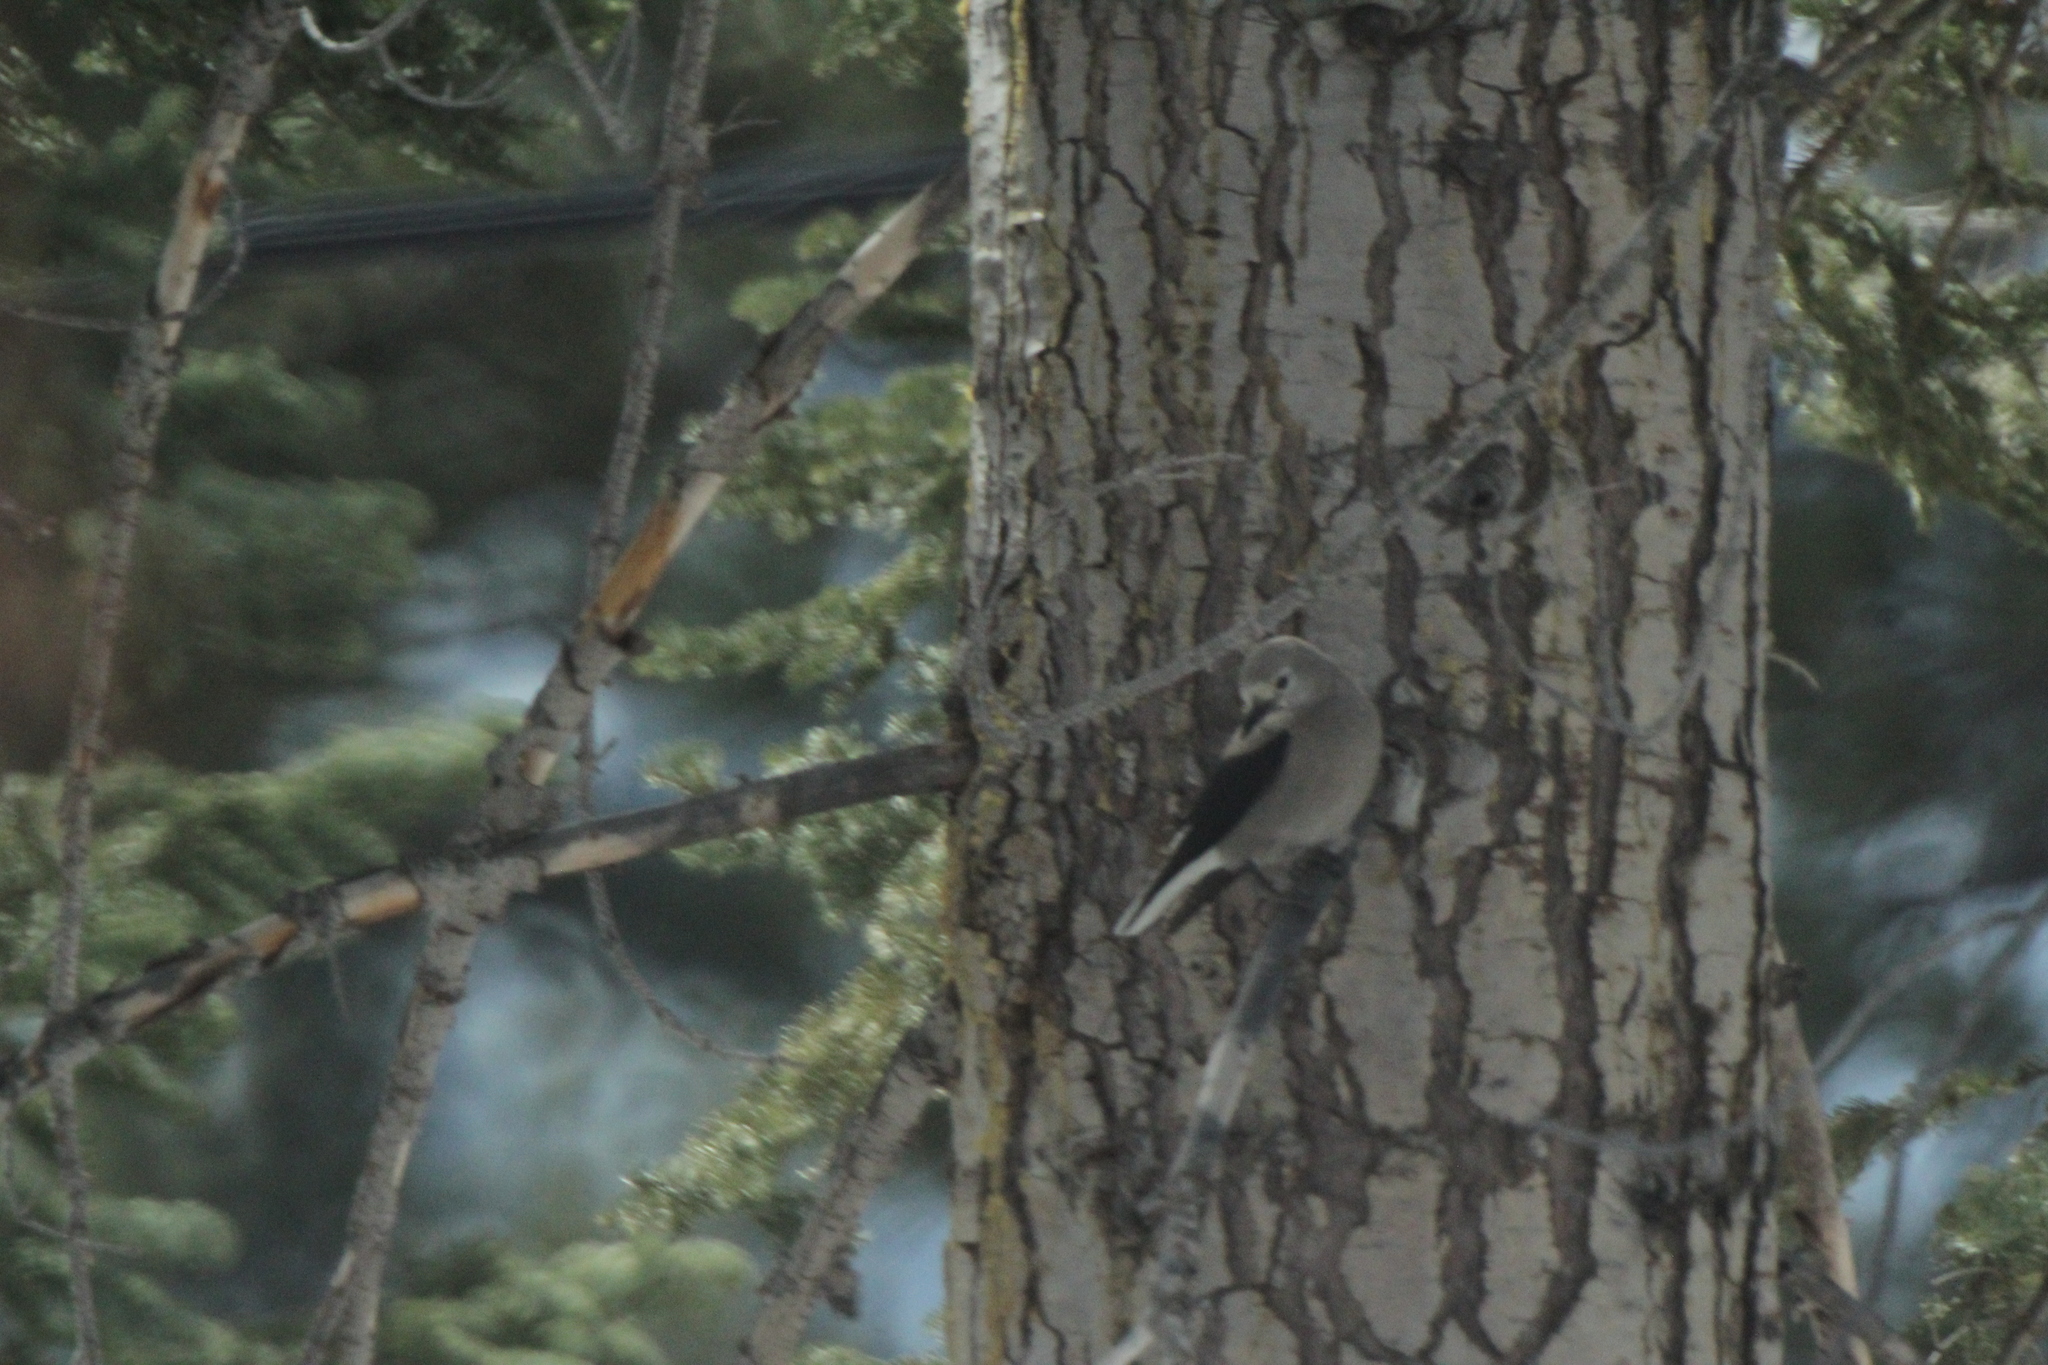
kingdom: Animalia
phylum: Chordata
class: Aves
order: Passeriformes
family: Corvidae
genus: Nucifraga
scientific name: Nucifraga columbiana
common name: Clark's nutcracker
